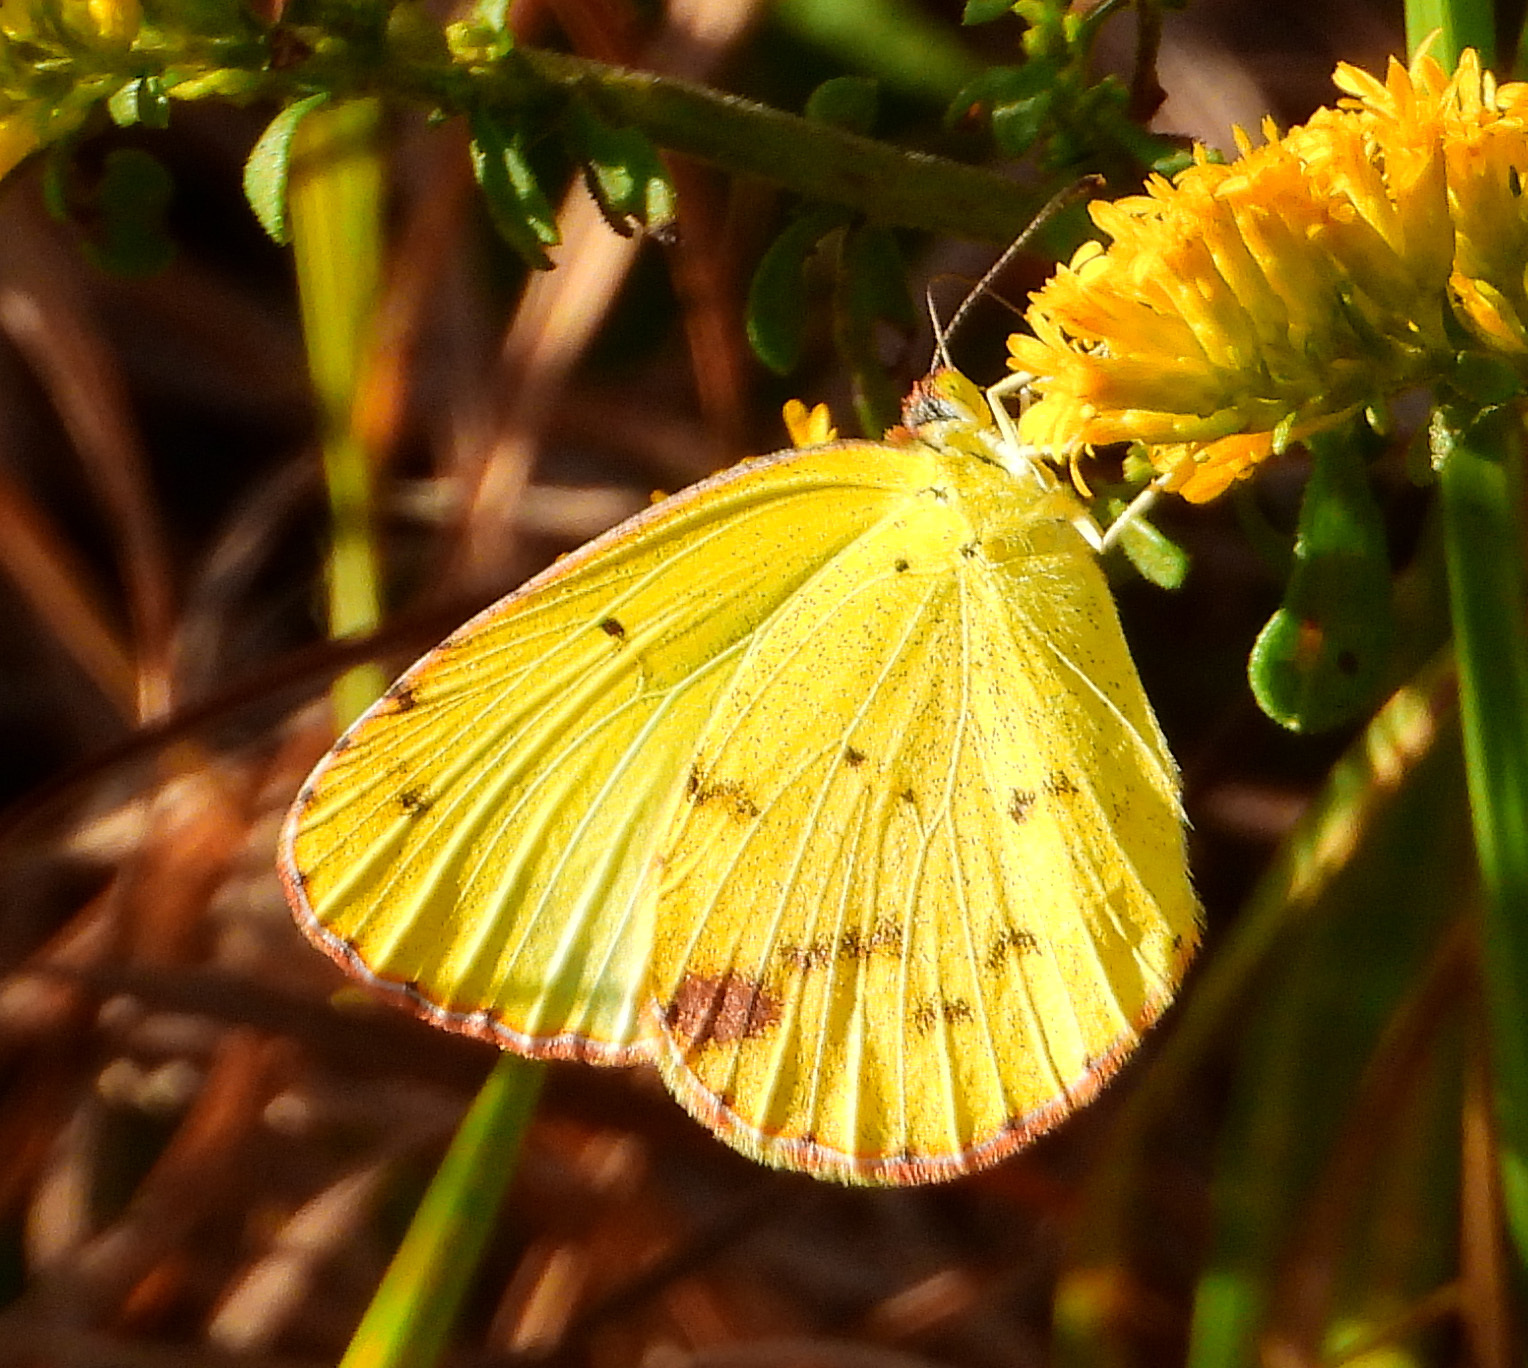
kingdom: Animalia
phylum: Arthropoda
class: Insecta
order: Lepidoptera
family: Pieridae
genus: Pyrisitia
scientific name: Pyrisitia lisa
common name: Little yellow
